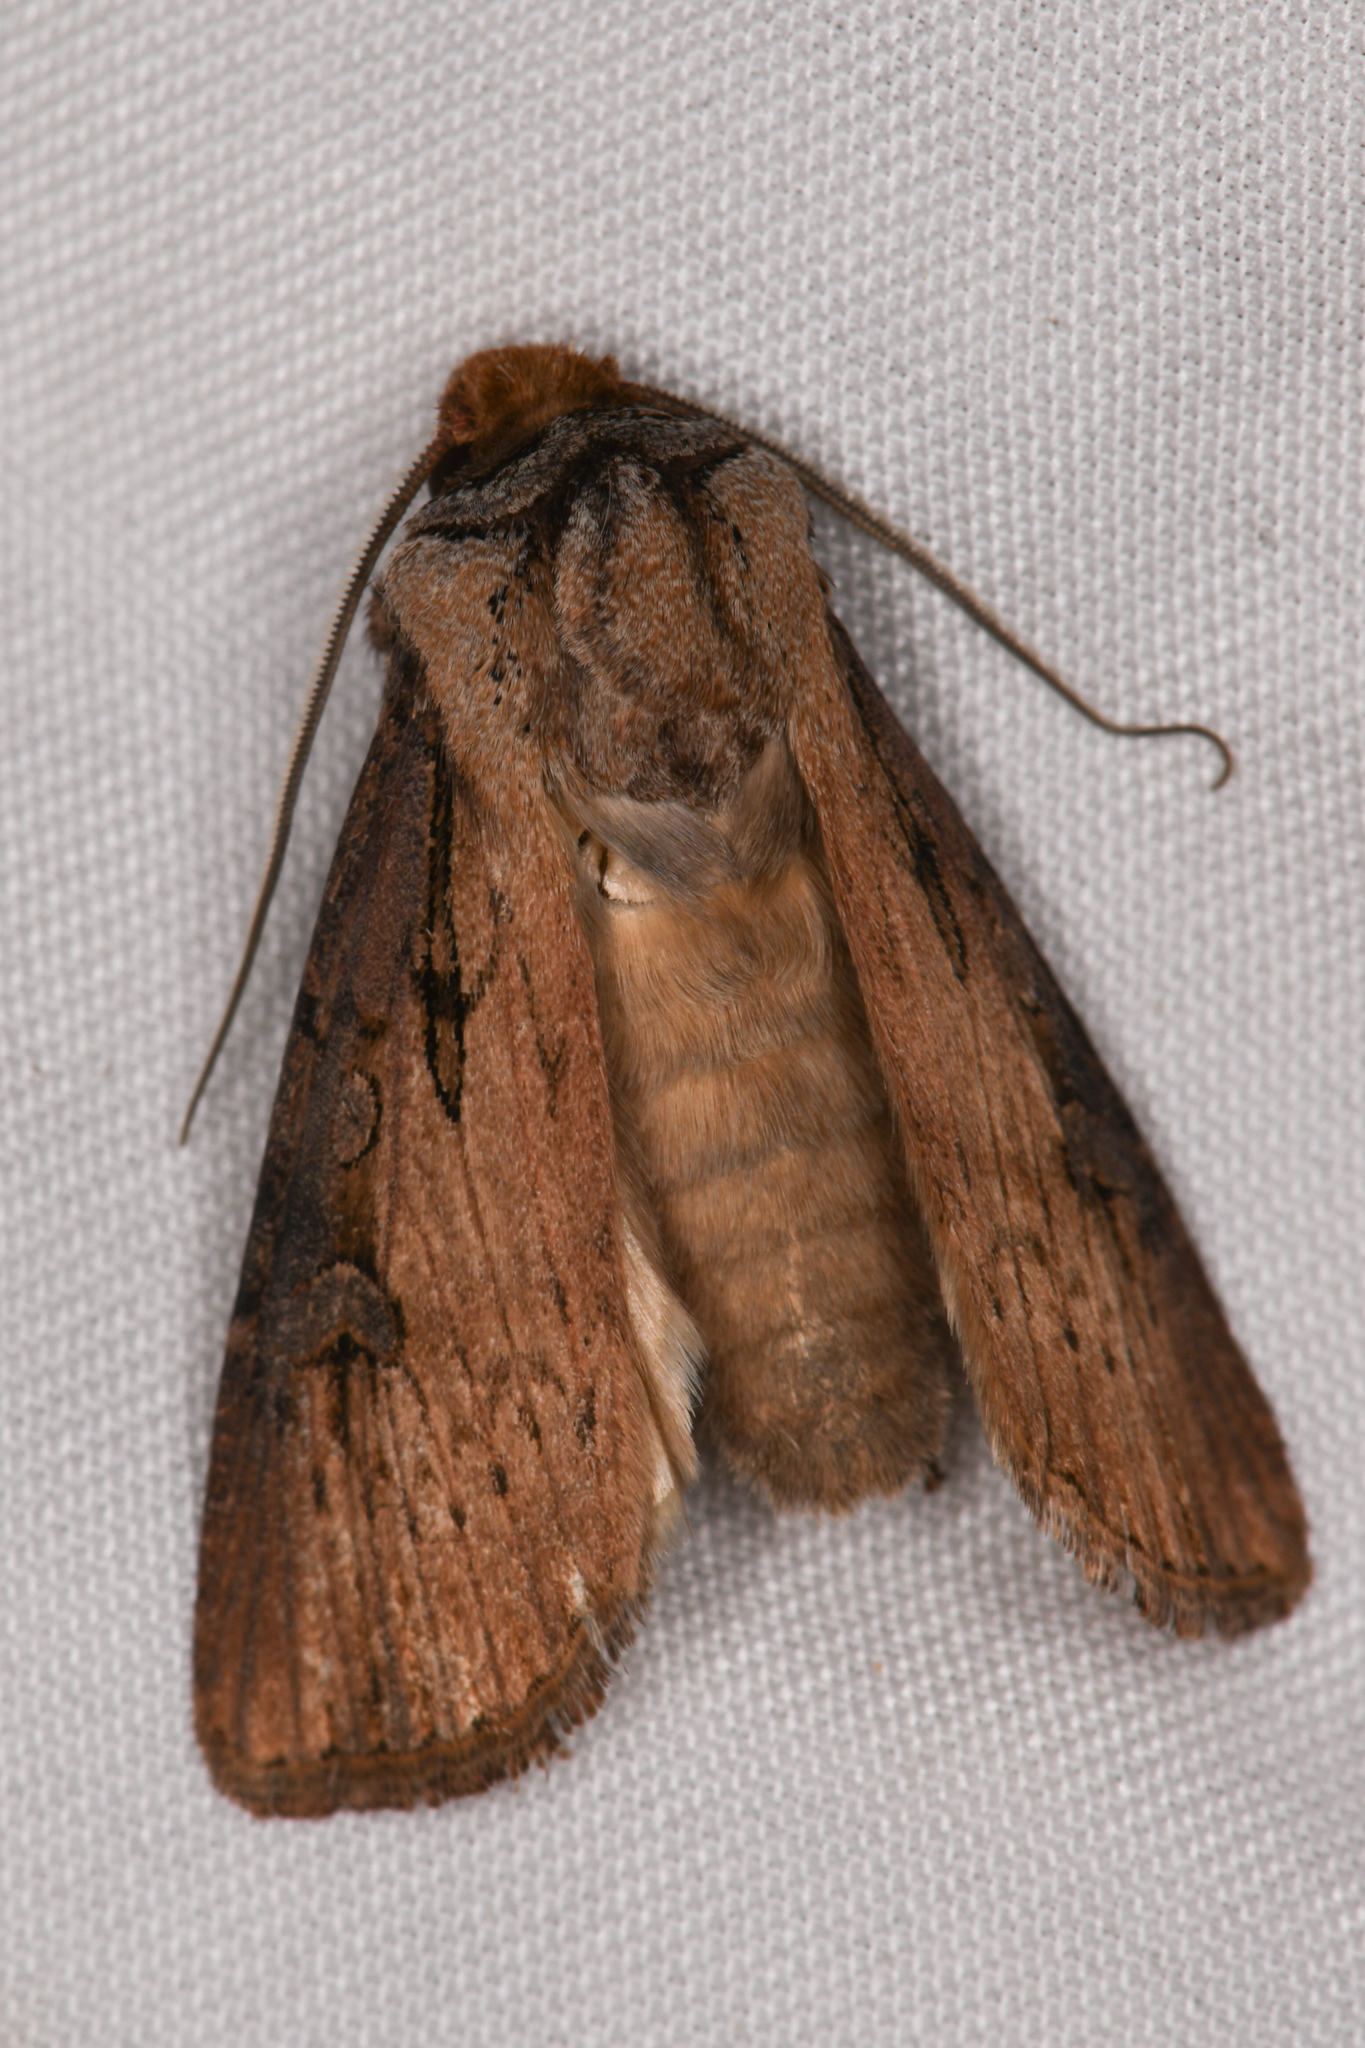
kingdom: Animalia
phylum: Arthropoda
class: Insecta
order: Lepidoptera
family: Noctuidae
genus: Agrotis
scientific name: Agrotis antica
